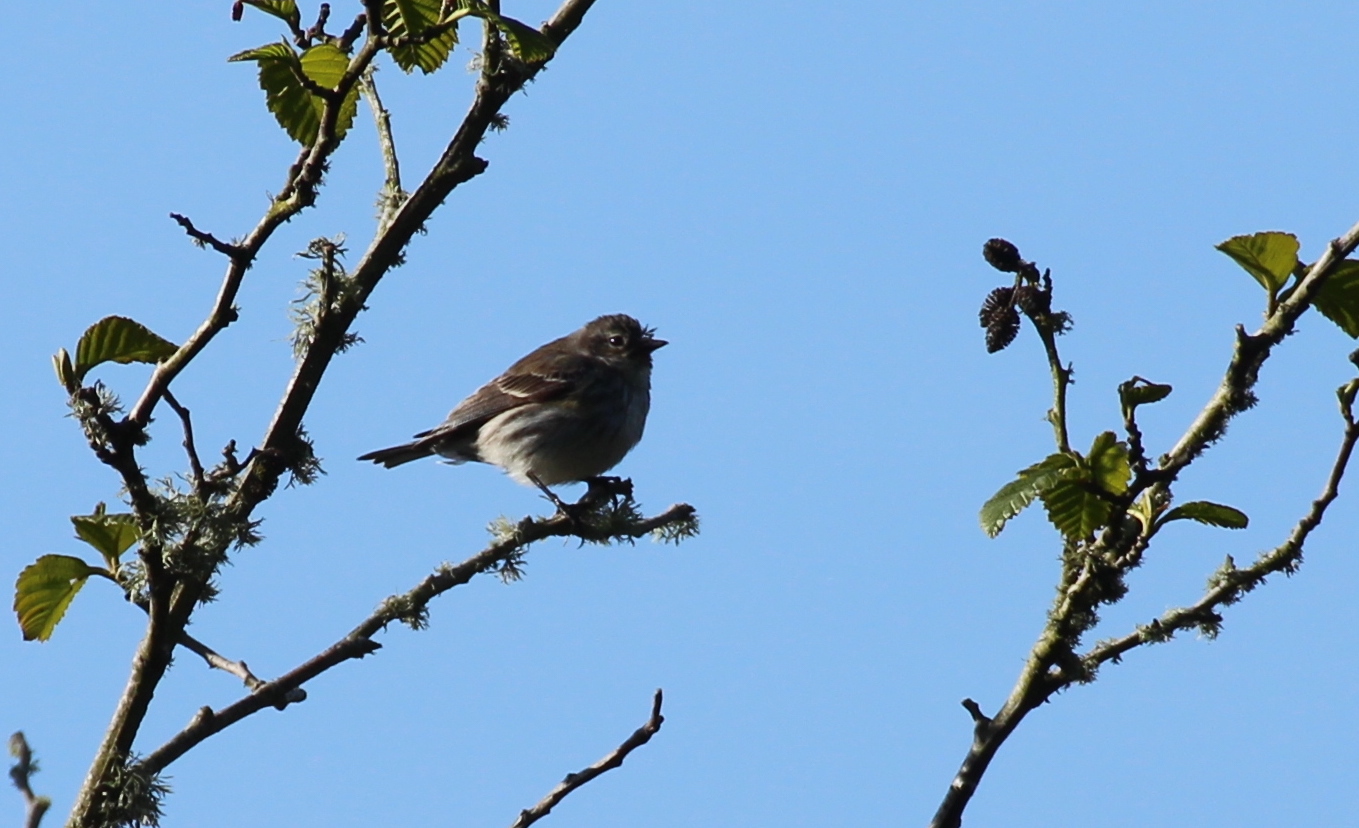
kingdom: Animalia
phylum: Chordata
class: Aves
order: Passeriformes
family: Parulidae
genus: Setophaga
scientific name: Setophaga coronata
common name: Myrtle warbler
